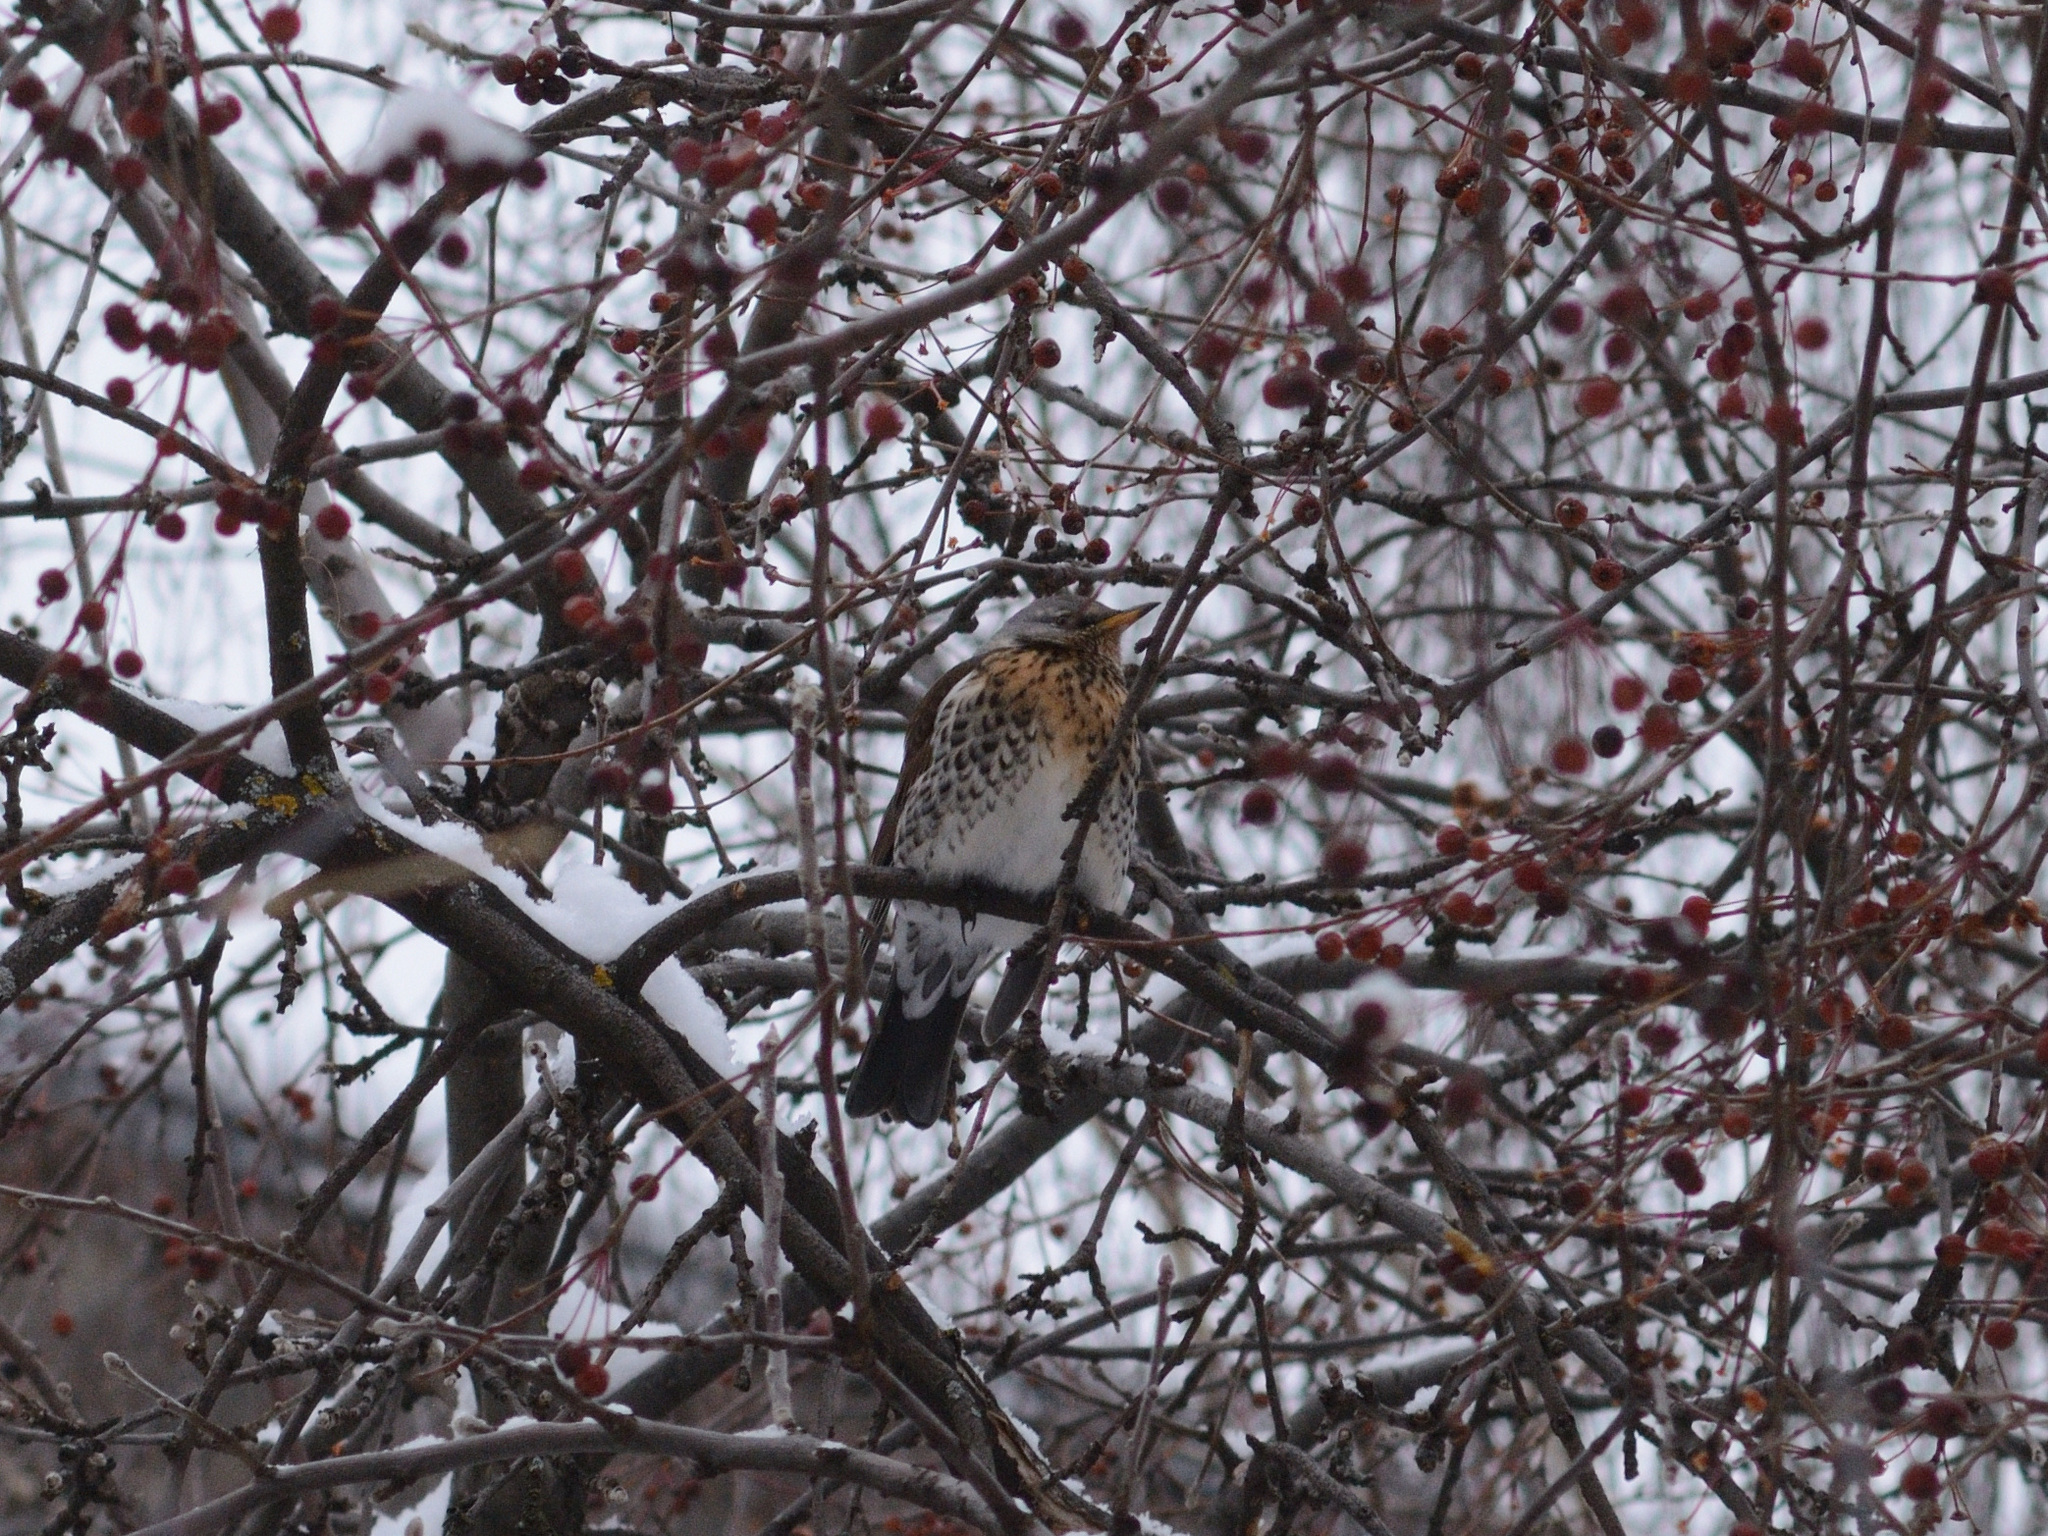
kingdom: Animalia
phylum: Chordata
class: Aves
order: Passeriformes
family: Turdidae
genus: Turdus
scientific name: Turdus pilaris
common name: Fieldfare
